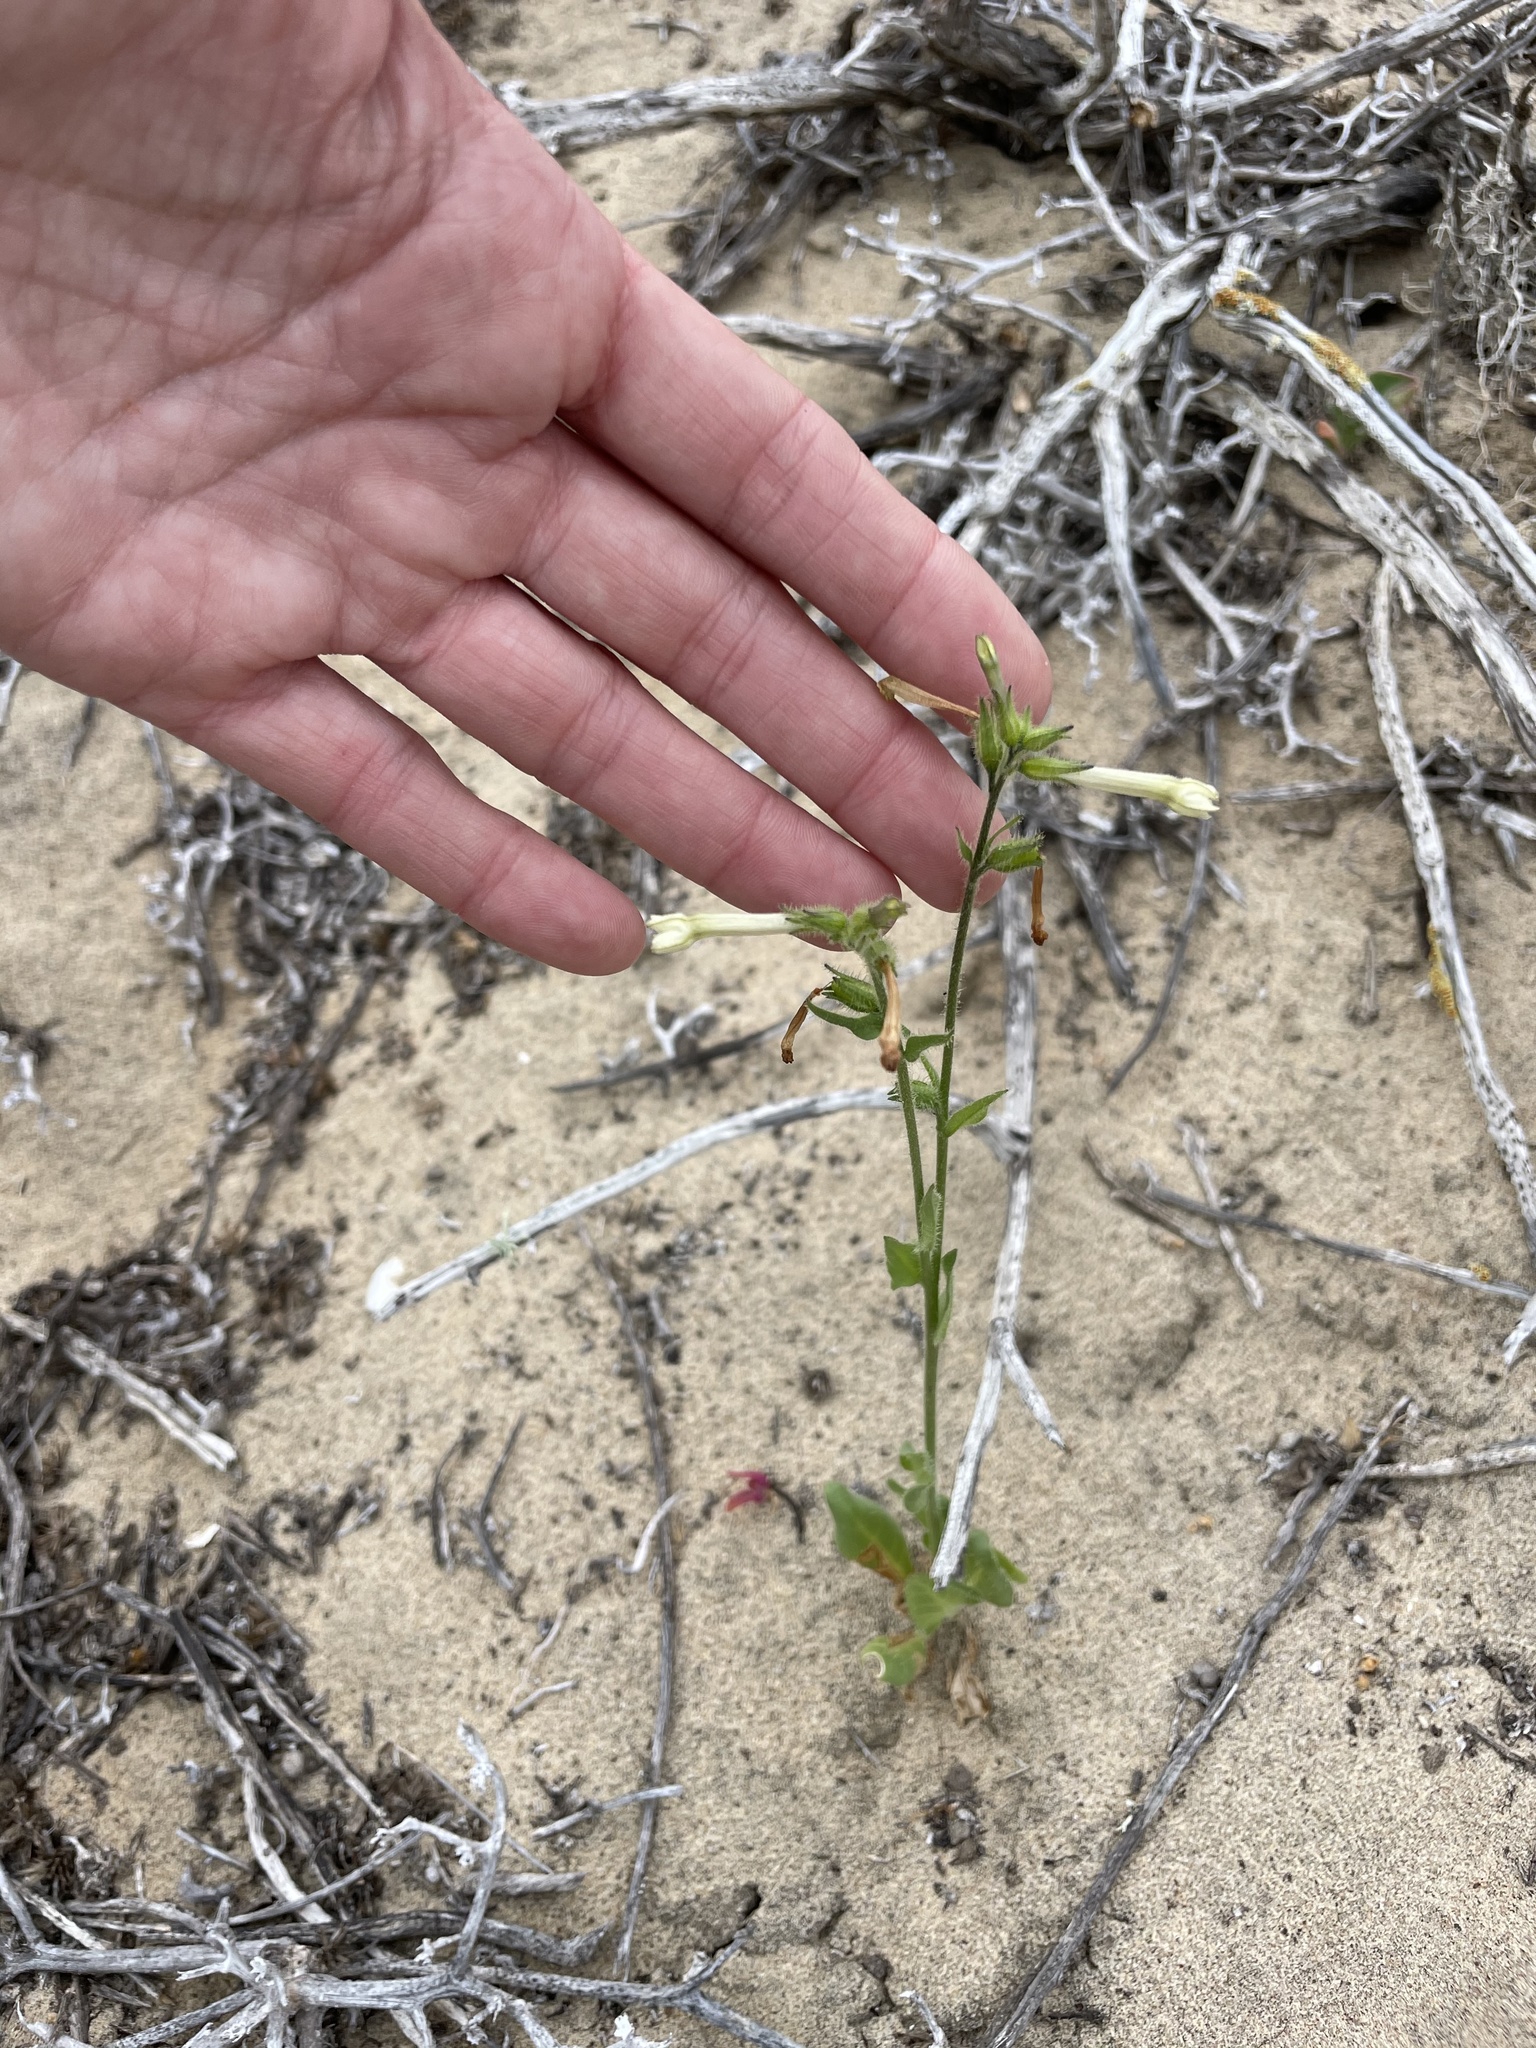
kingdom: Plantae
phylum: Tracheophyta
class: Magnoliopsida
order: Solanales
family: Solanaceae
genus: Nicotiana
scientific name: Nicotiana clevelandii
